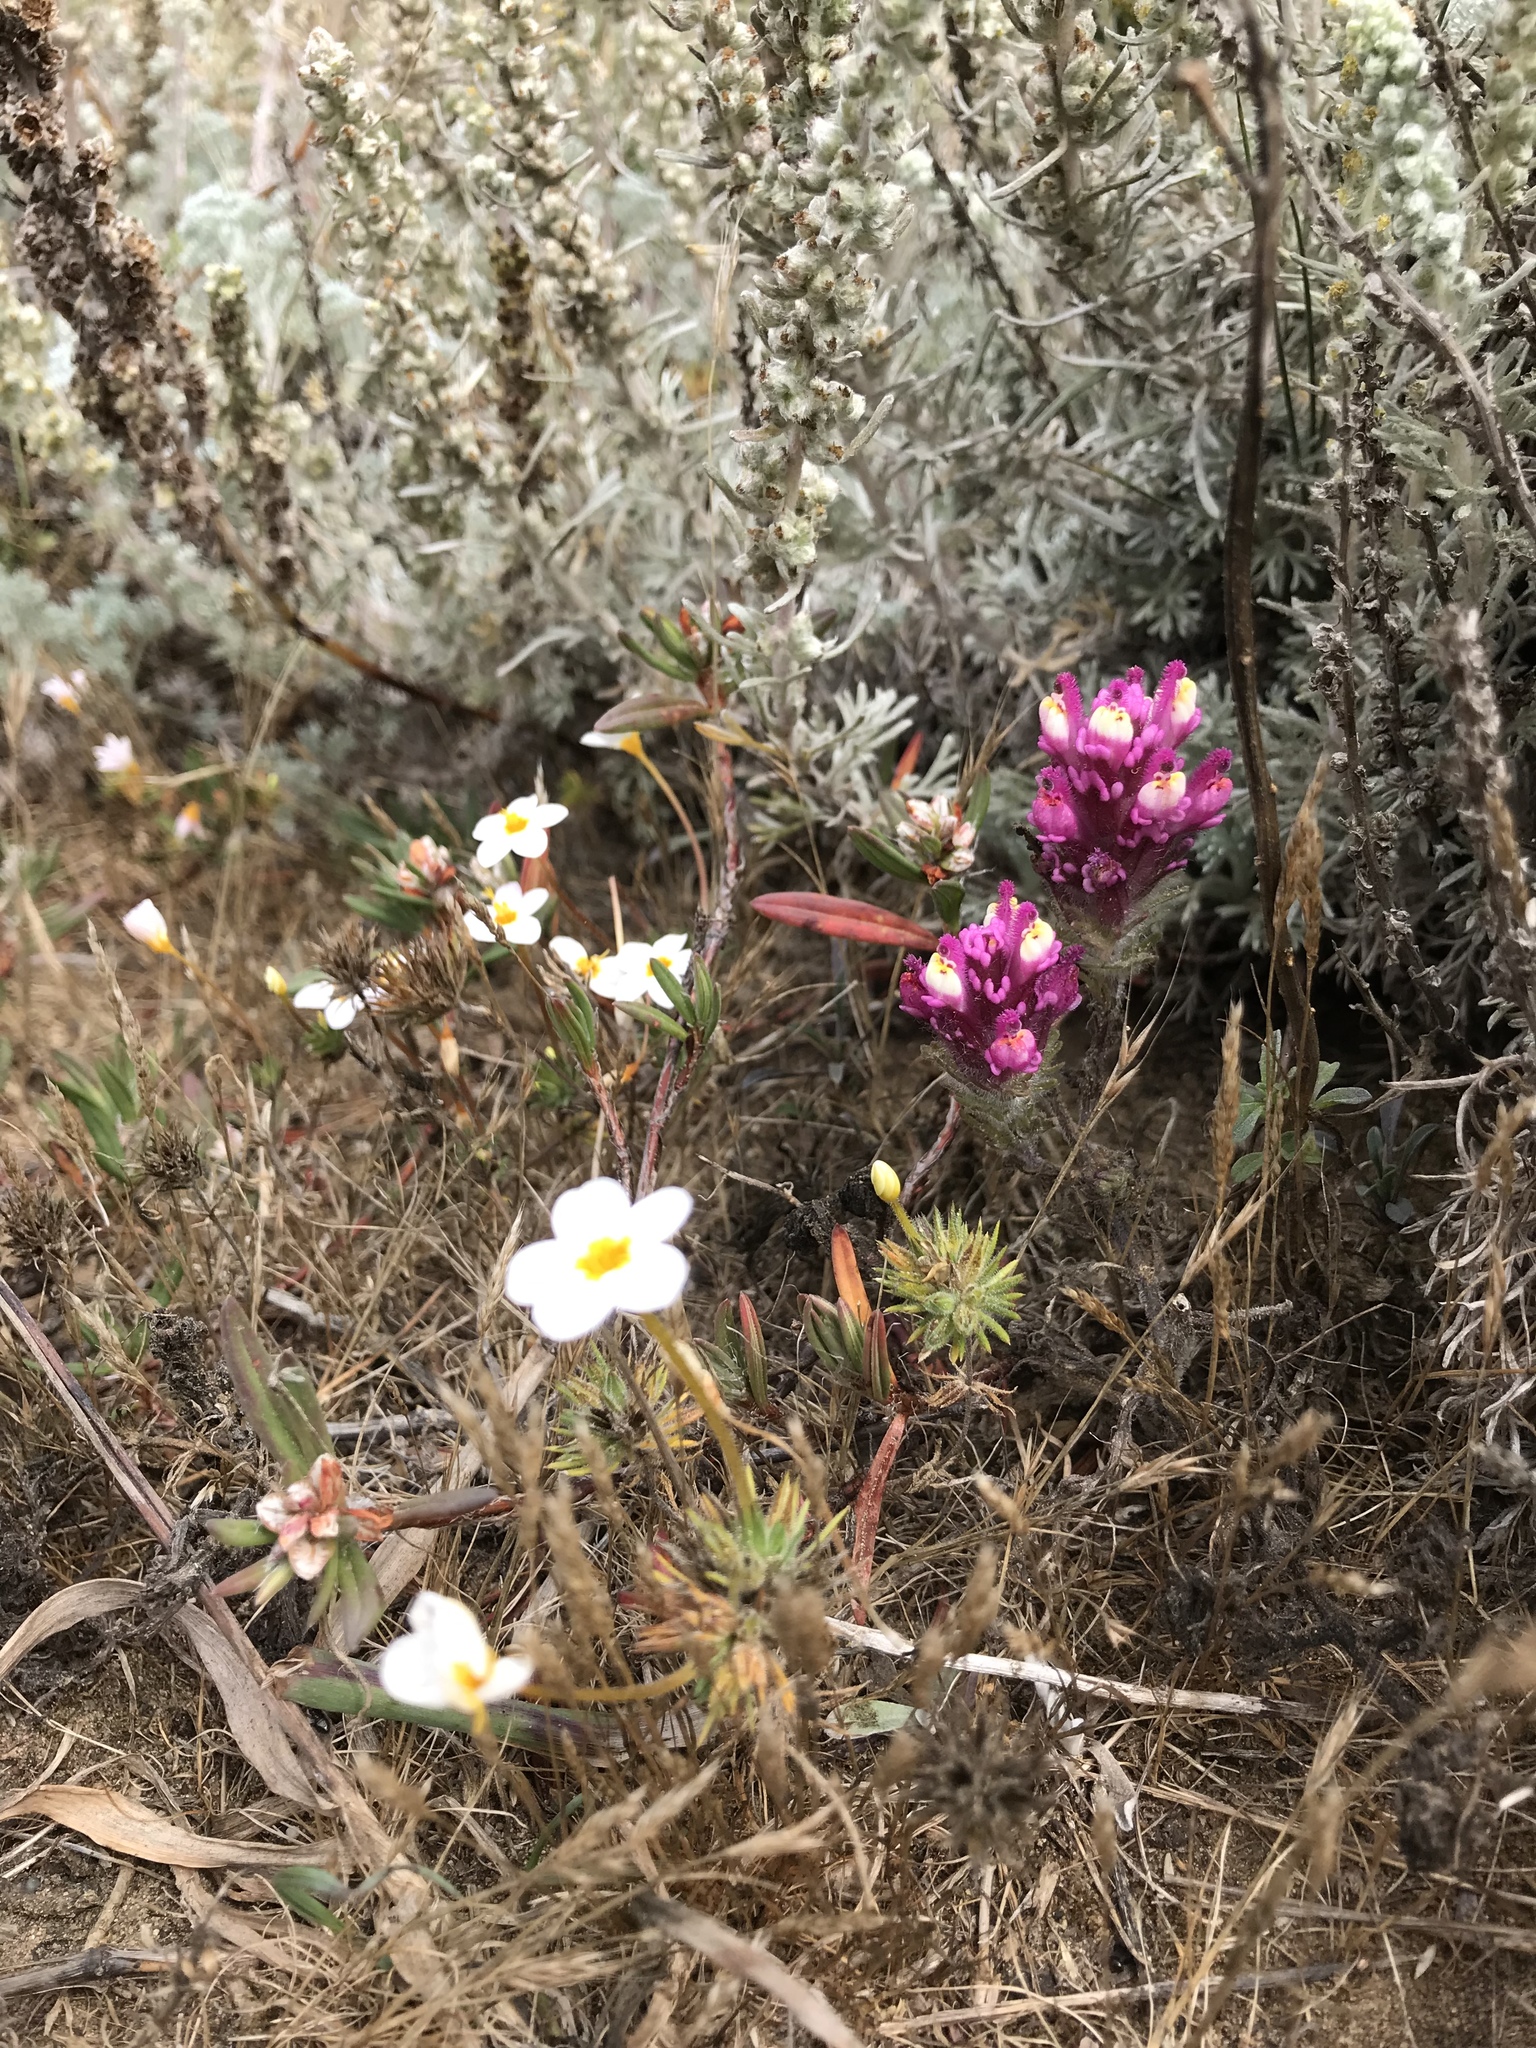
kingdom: Plantae
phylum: Tracheophyta
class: Magnoliopsida
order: Ericales
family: Polemoniaceae
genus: Leptosiphon
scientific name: Leptosiphon parviflorus
